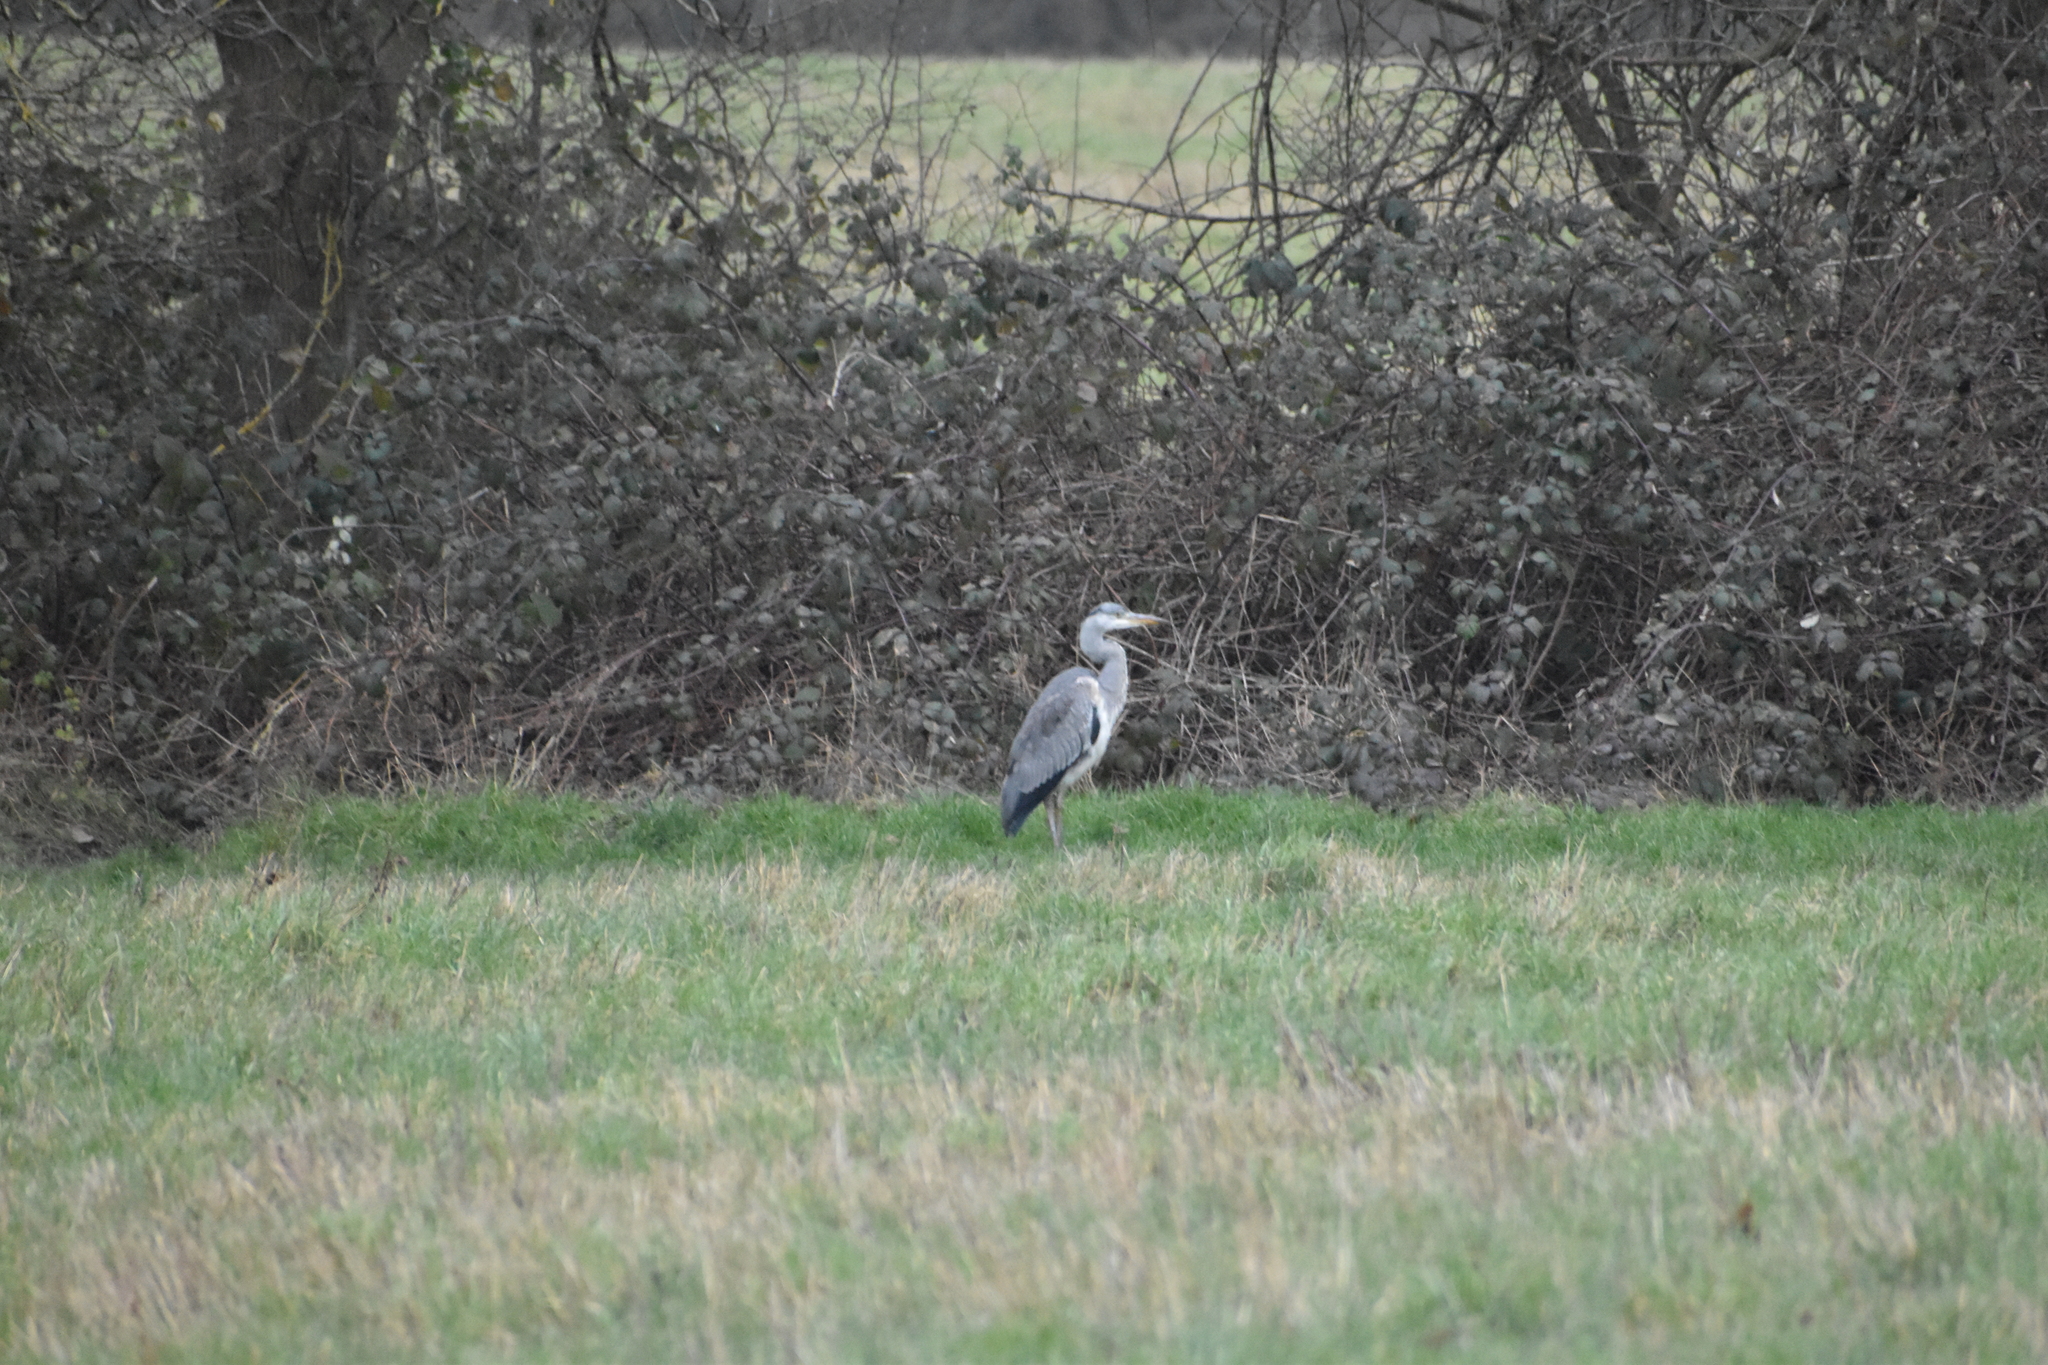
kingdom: Animalia
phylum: Chordata
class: Aves
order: Pelecaniformes
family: Ardeidae
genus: Ardea
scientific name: Ardea cinerea
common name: Grey heron
